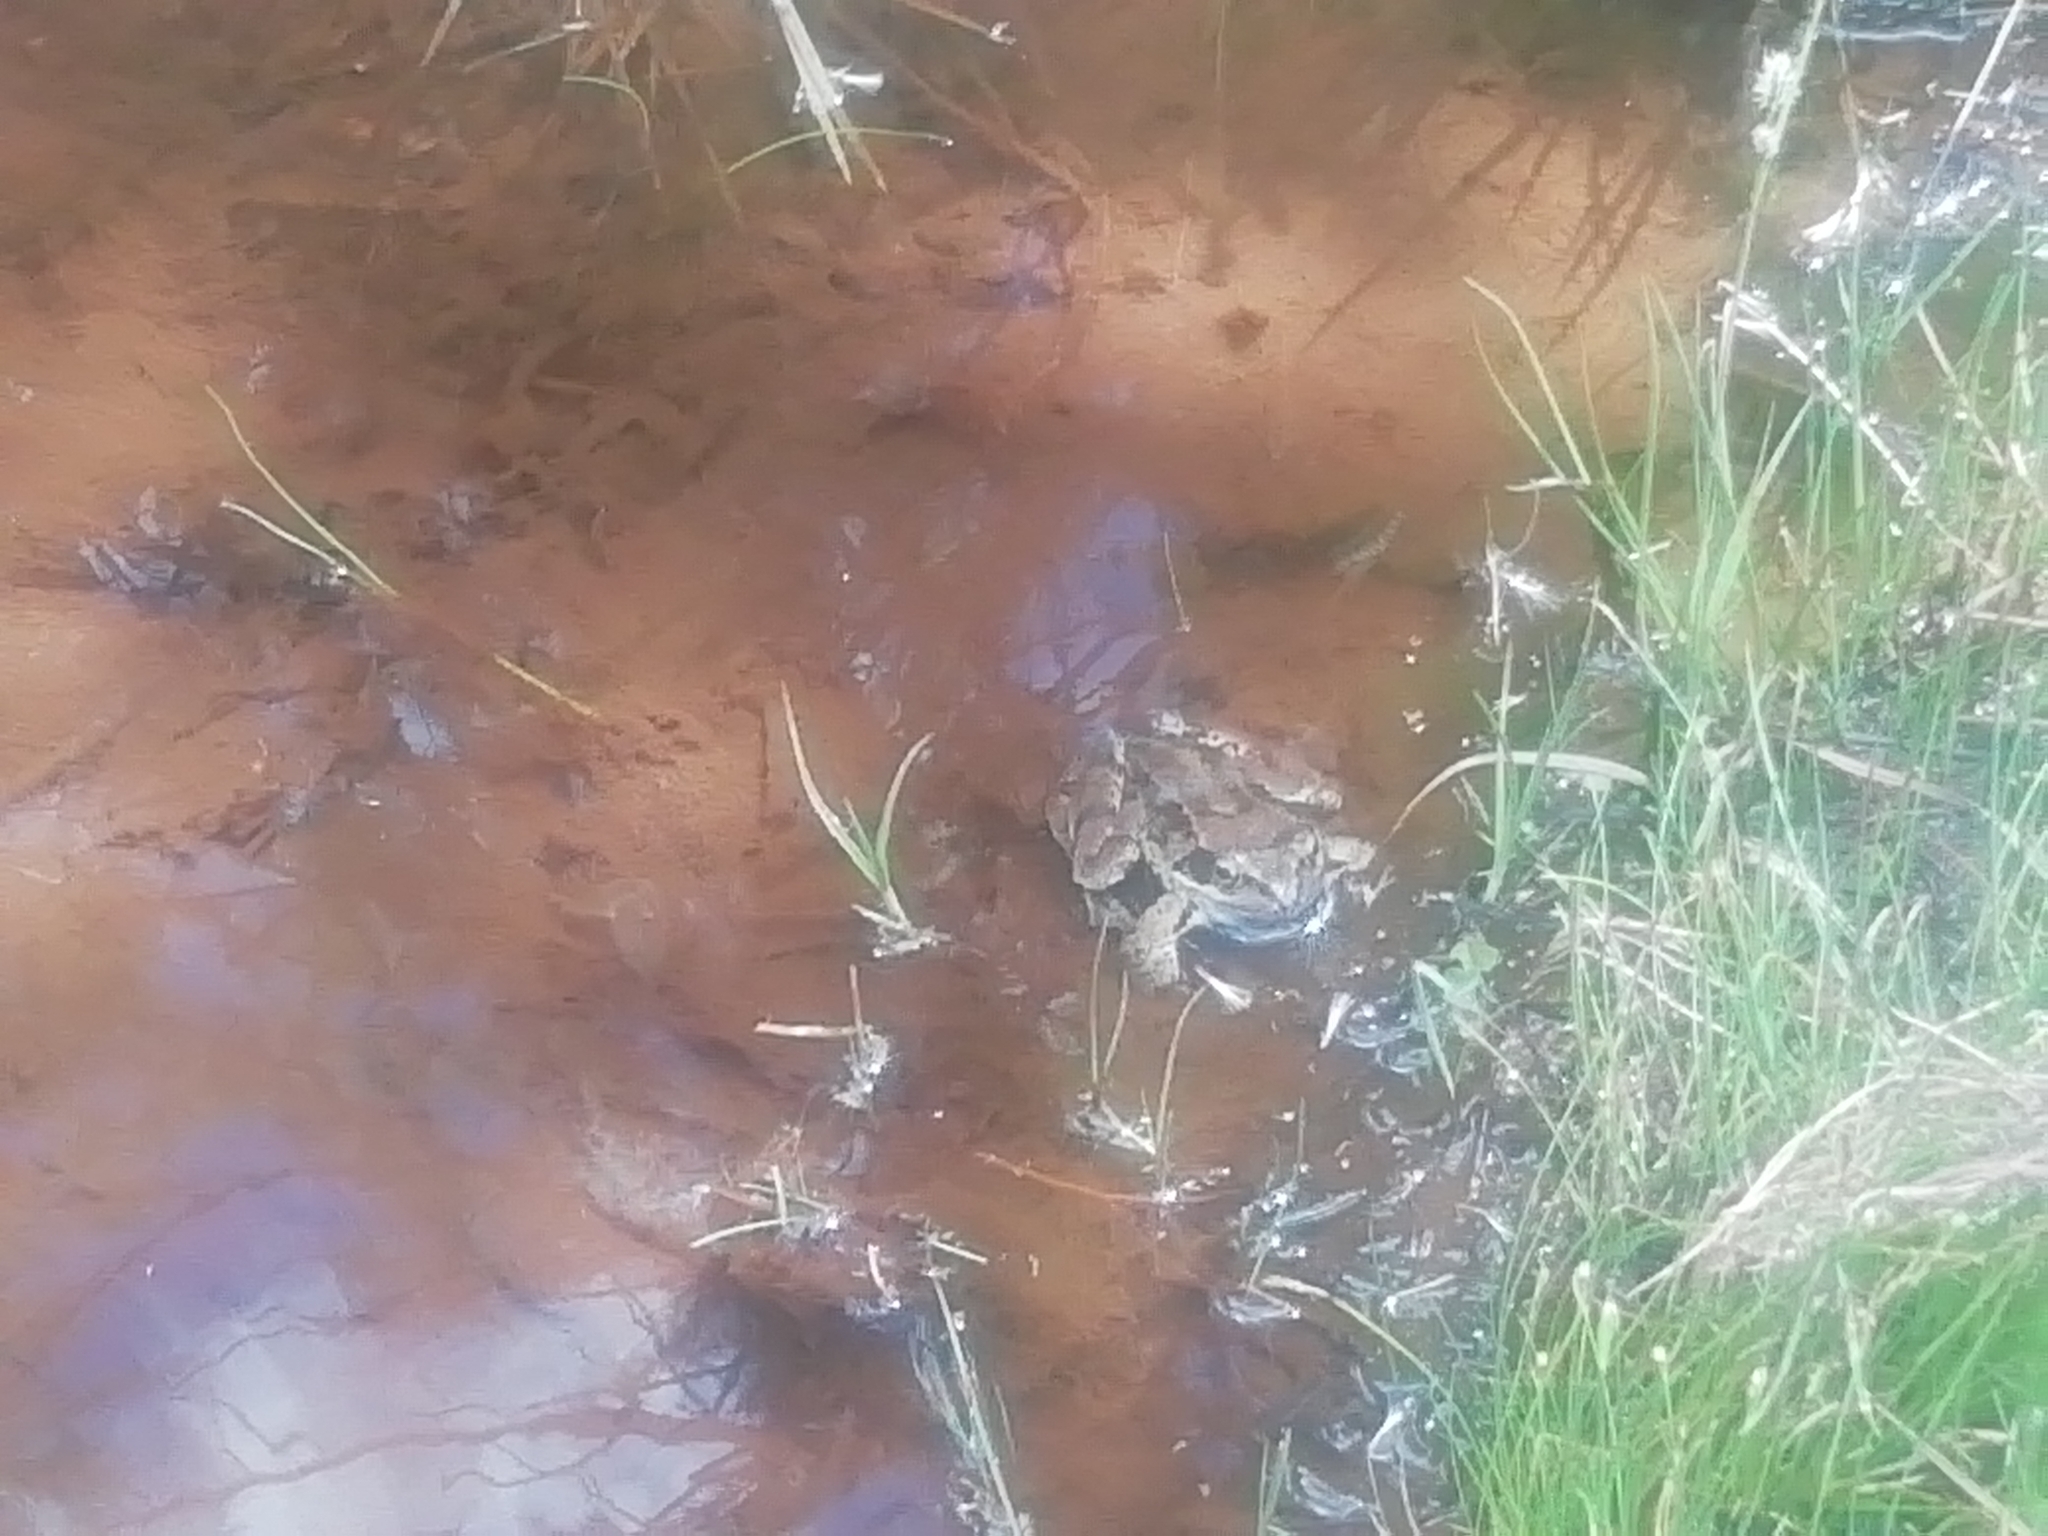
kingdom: Animalia
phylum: Chordata
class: Amphibia
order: Anura
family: Ranidae
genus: Rana
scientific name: Rana temporaria
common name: Common frog
